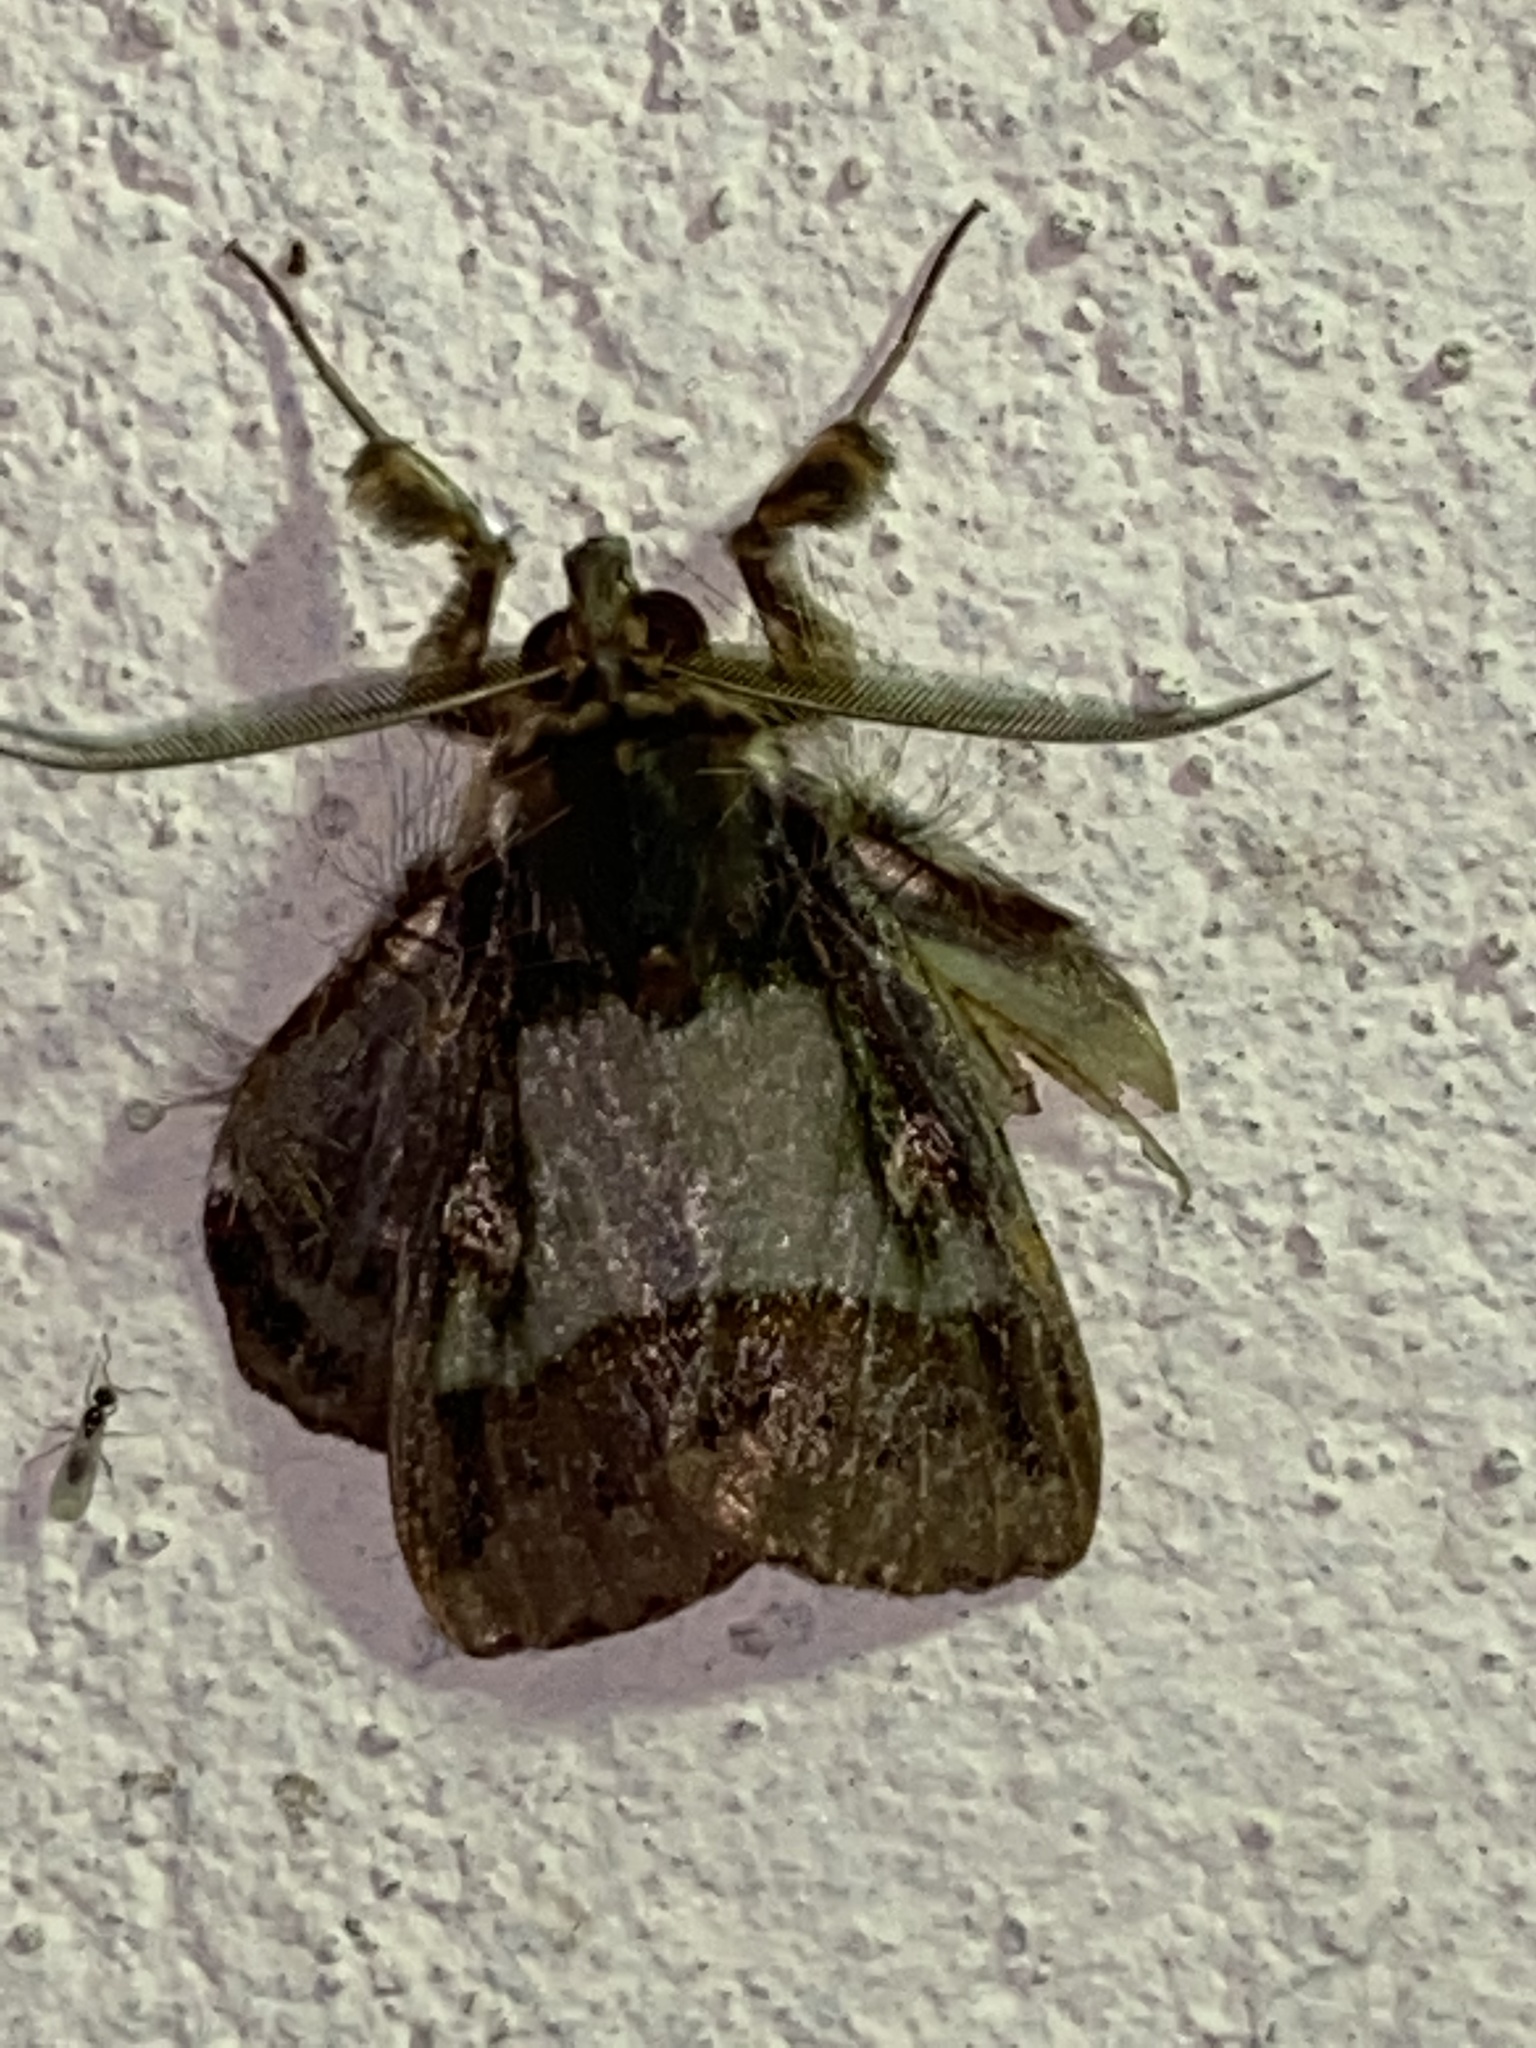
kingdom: Animalia
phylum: Arthropoda
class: Insecta
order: Lepidoptera
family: Erebidae
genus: Ceroctena
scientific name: Ceroctena amynta
